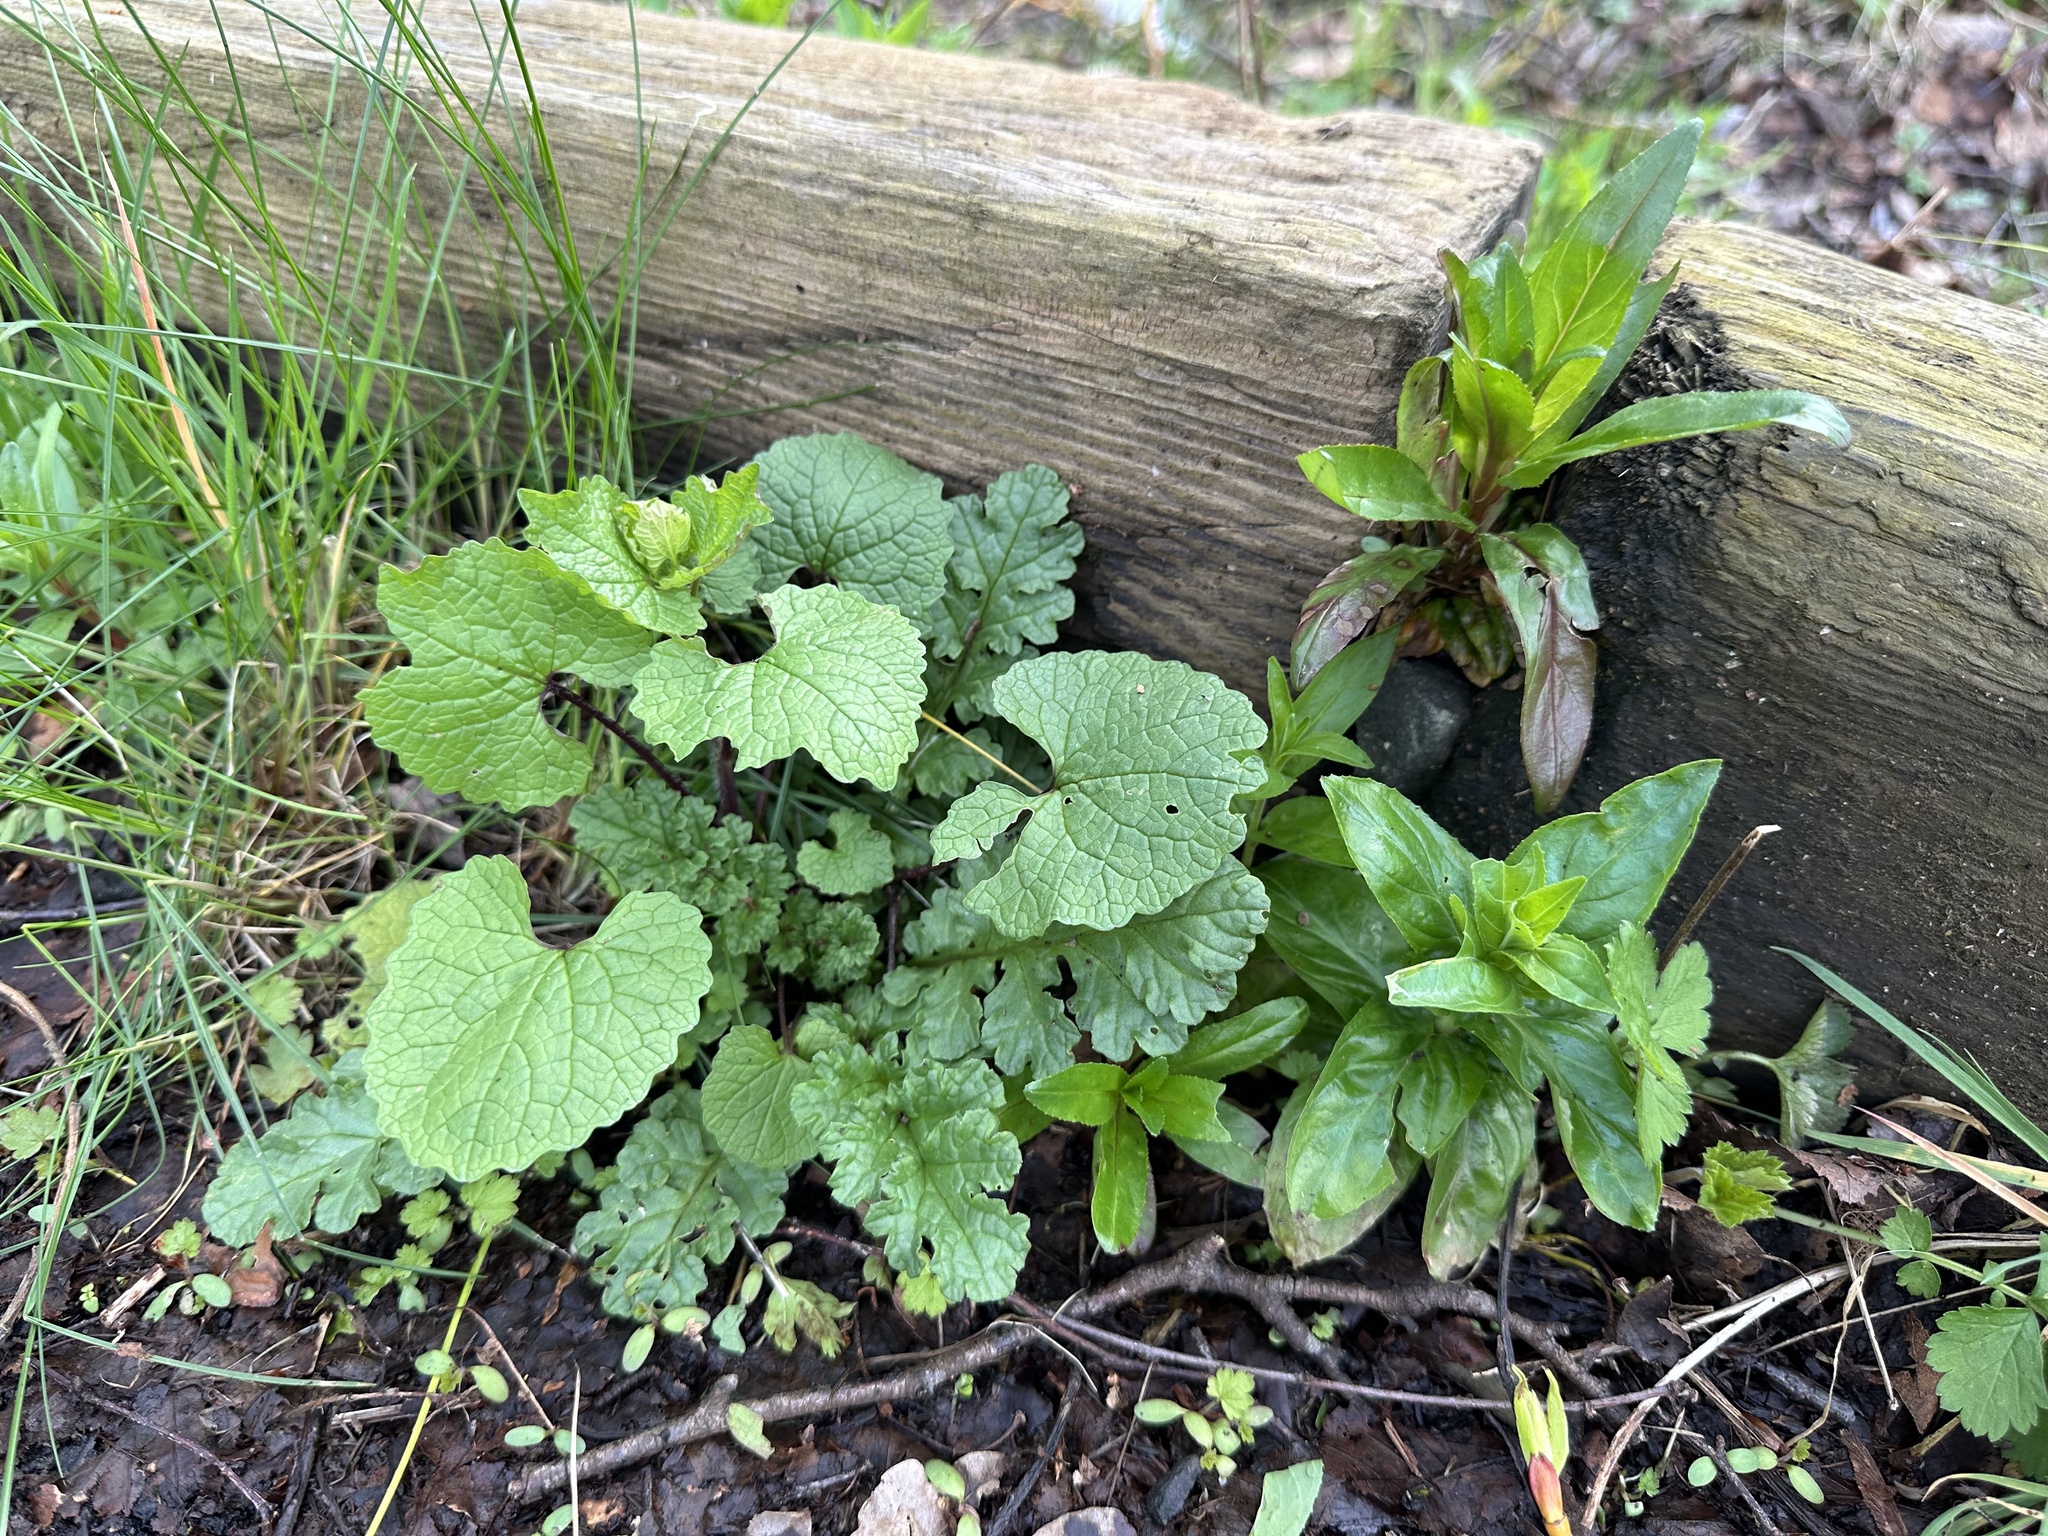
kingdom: Plantae
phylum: Tracheophyta
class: Magnoliopsida
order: Asterales
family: Asteraceae
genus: Jacobaea
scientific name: Jacobaea vulgaris
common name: Stinking willie
